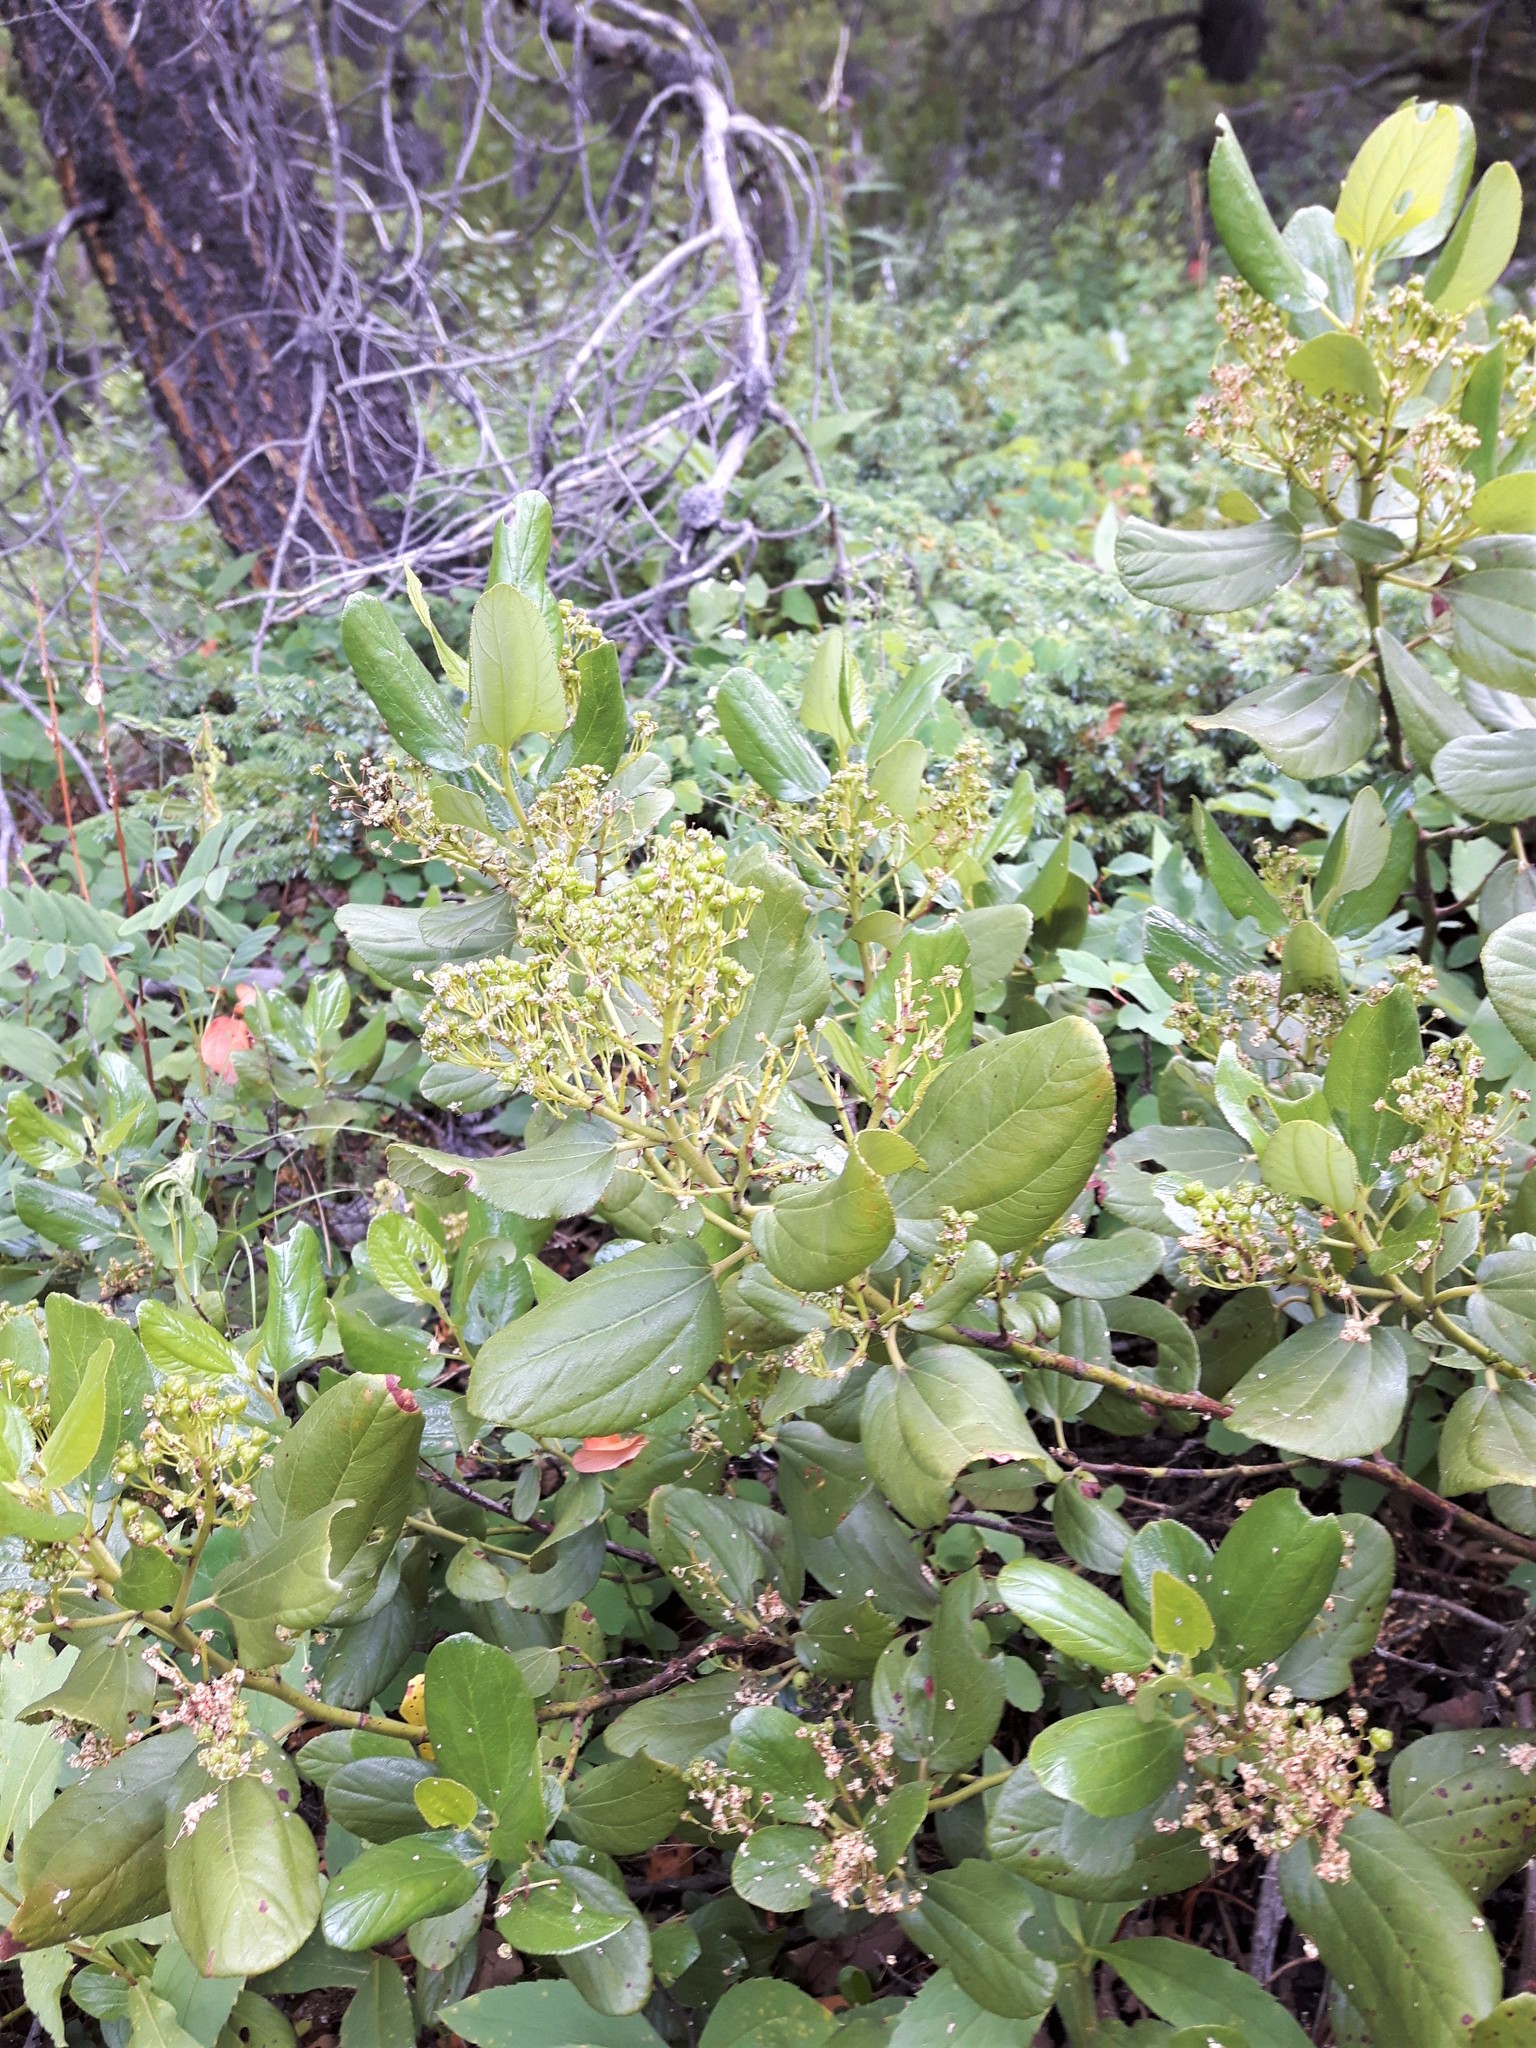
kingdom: Plantae
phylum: Tracheophyta
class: Magnoliopsida
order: Rosales
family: Rhamnaceae
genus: Ceanothus
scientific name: Ceanothus velutinus
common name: Snowbrush
